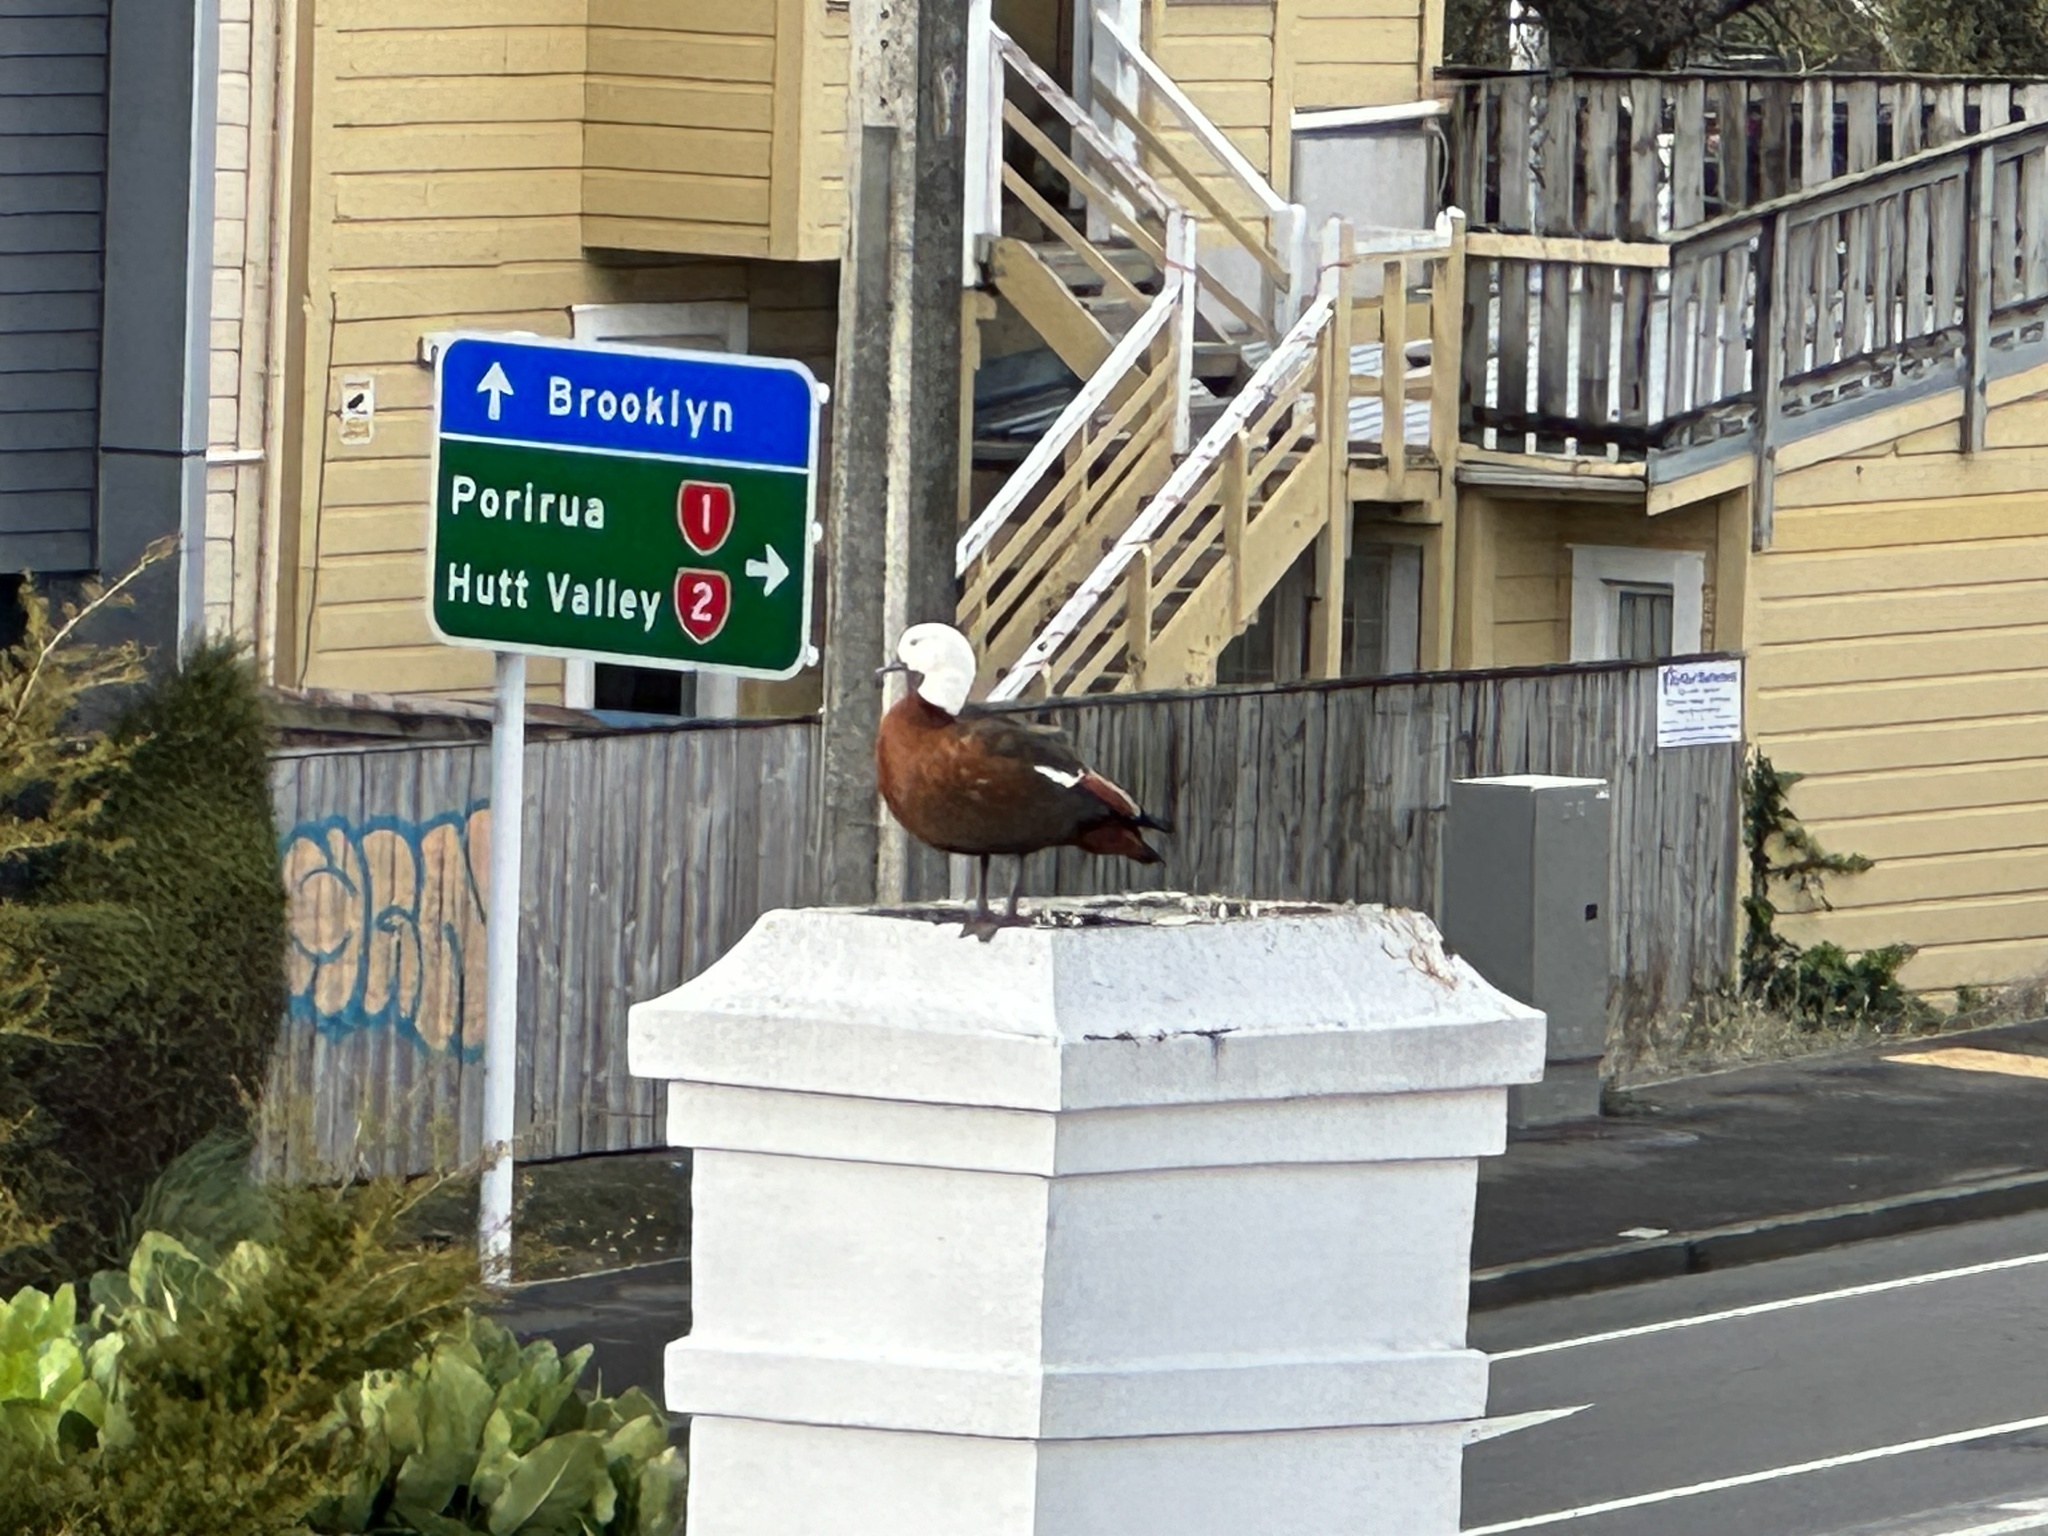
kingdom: Animalia
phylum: Chordata
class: Aves
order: Anseriformes
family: Anatidae
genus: Tadorna
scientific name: Tadorna variegata
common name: Paradise shelduck
